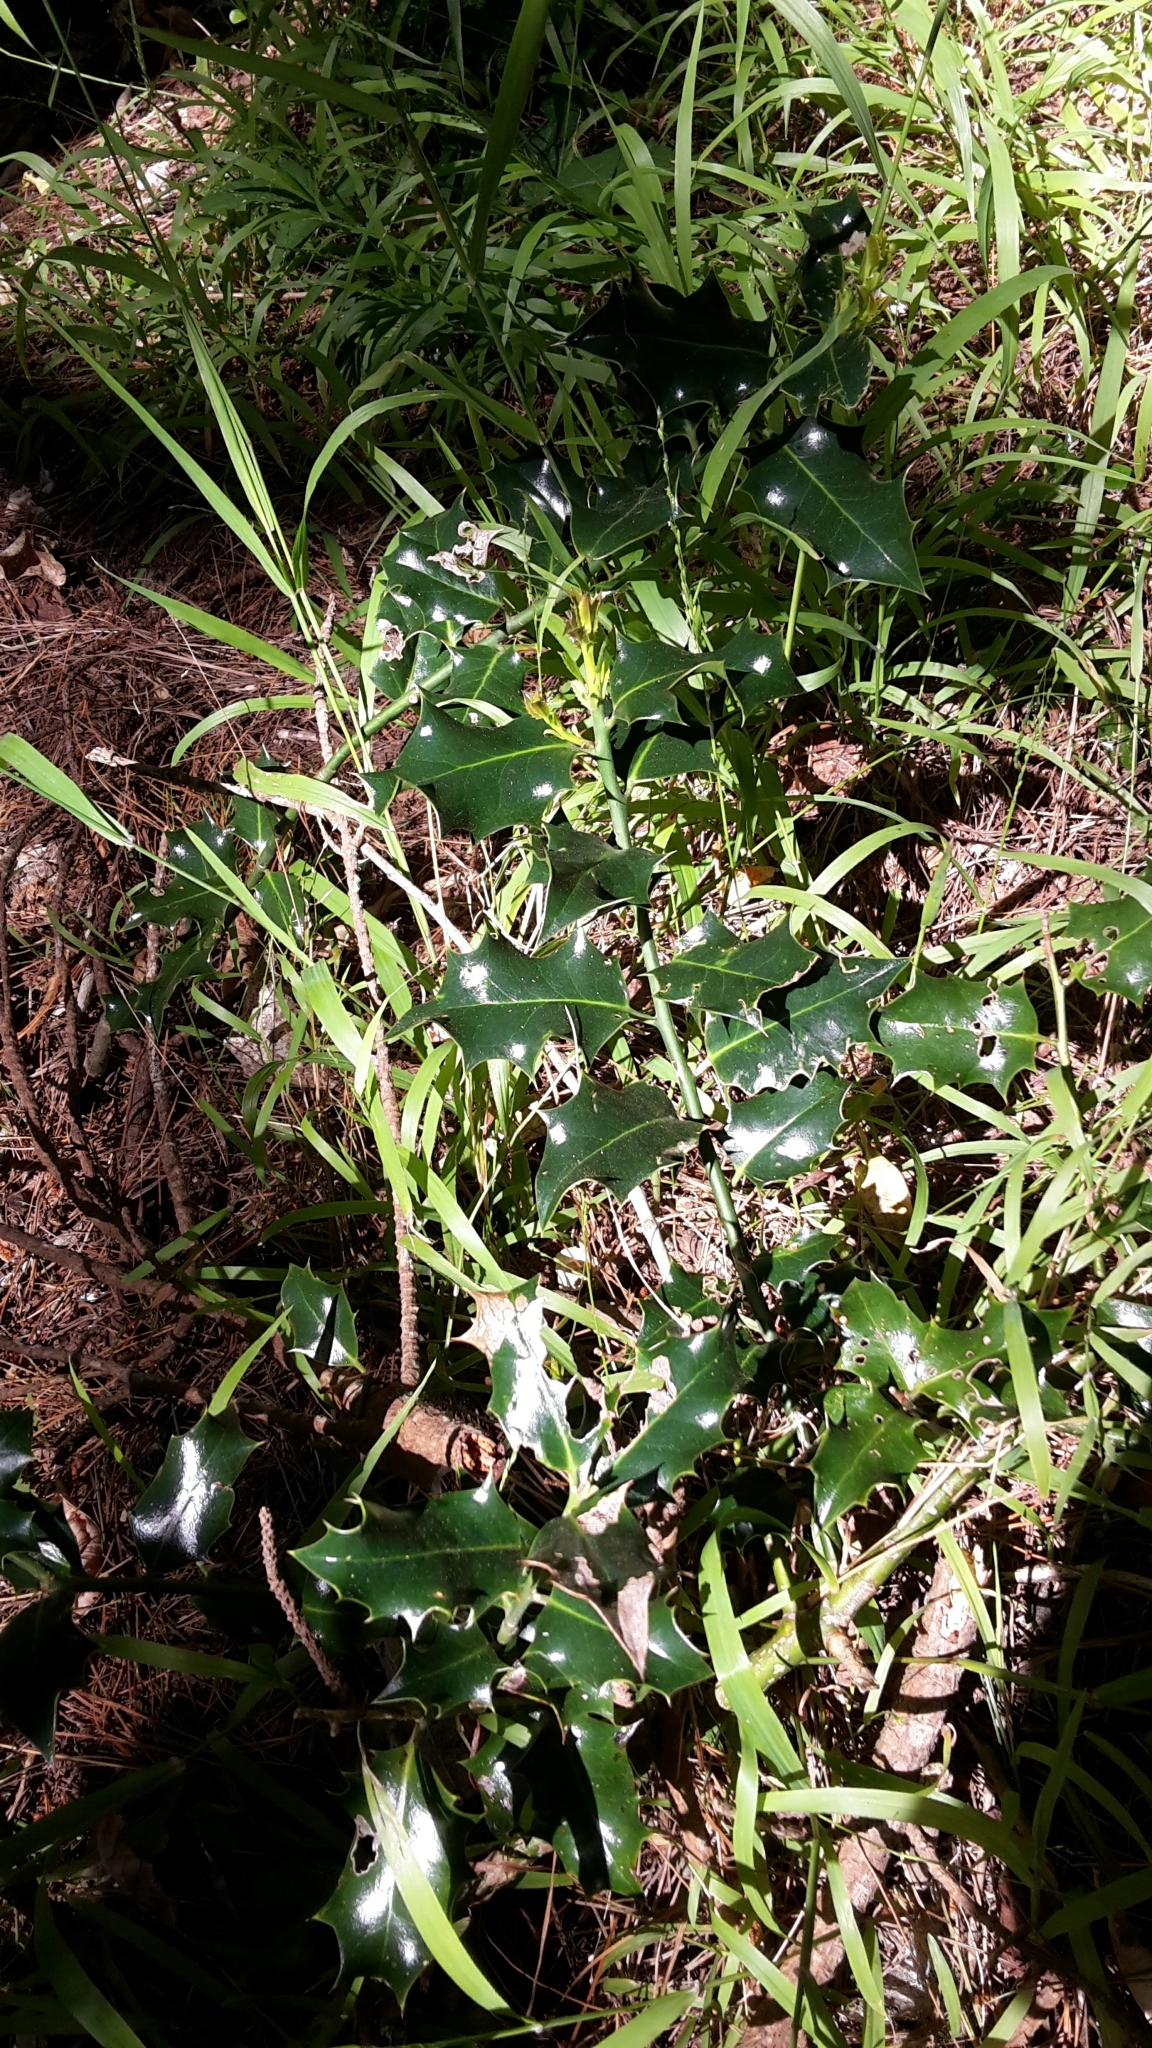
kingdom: Plantae
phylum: Tracheophyta
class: Magnoliopsida
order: Aquifoliales
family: Aquifoliaceae
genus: Ilex
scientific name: Ilex aquifolium
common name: English holly
